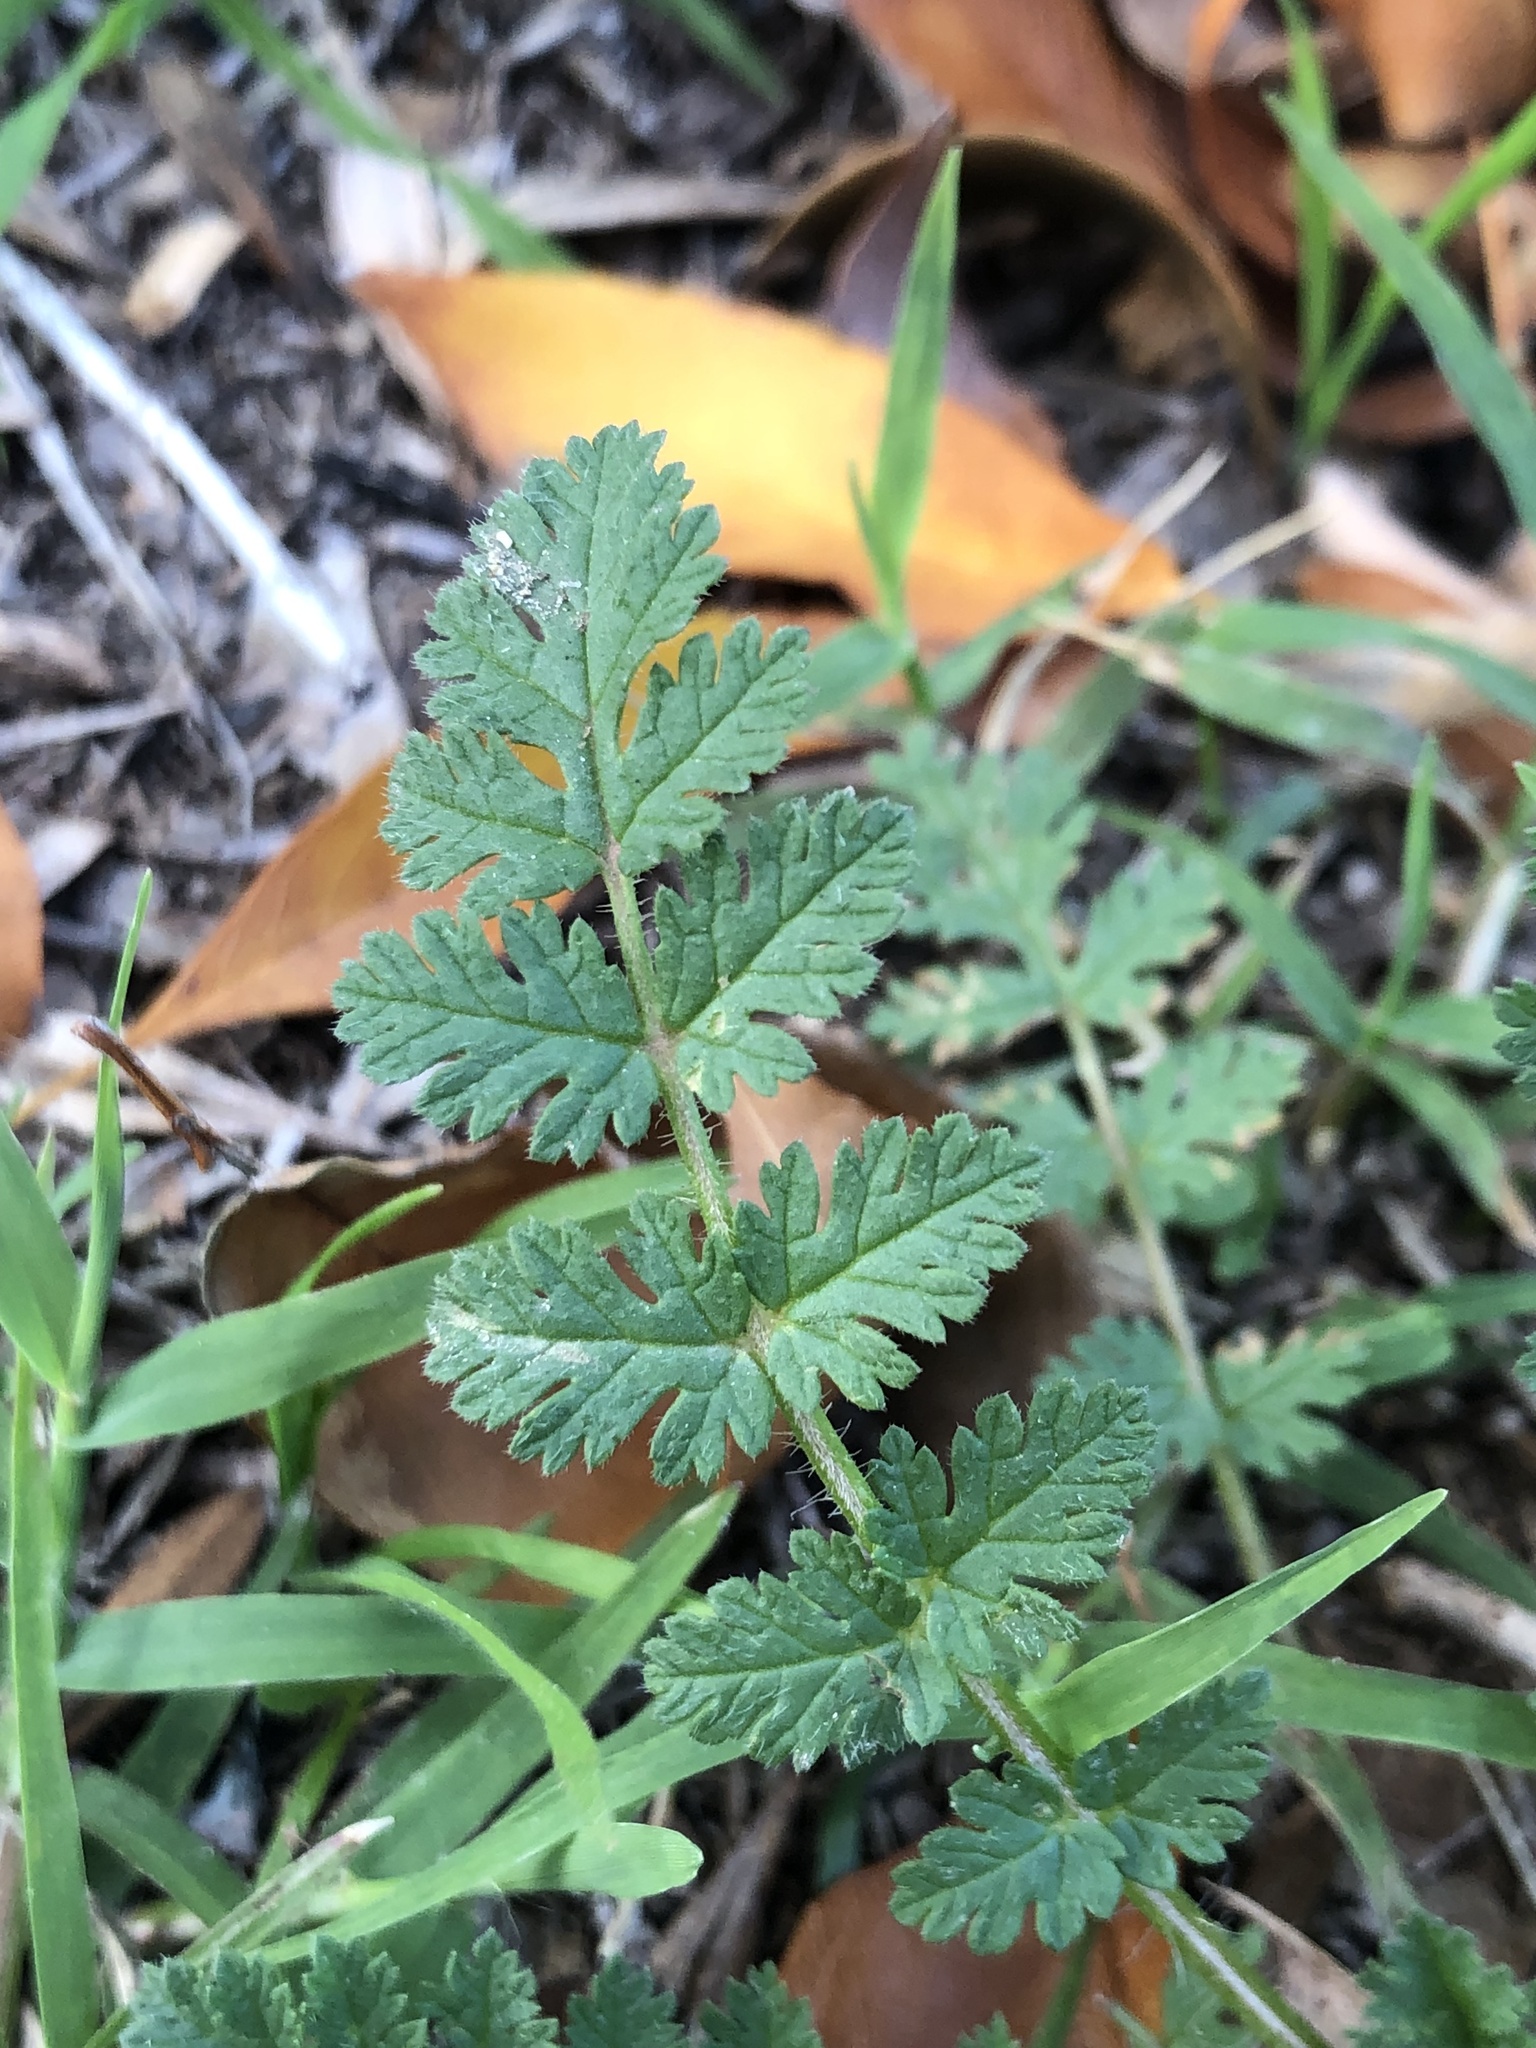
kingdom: Plantae
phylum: Tracheophyta
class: Magnoliopsida
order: Geraniales
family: Geraniaceae
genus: Erodium
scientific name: Erodium cicutarium
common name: Common stork's-bill
